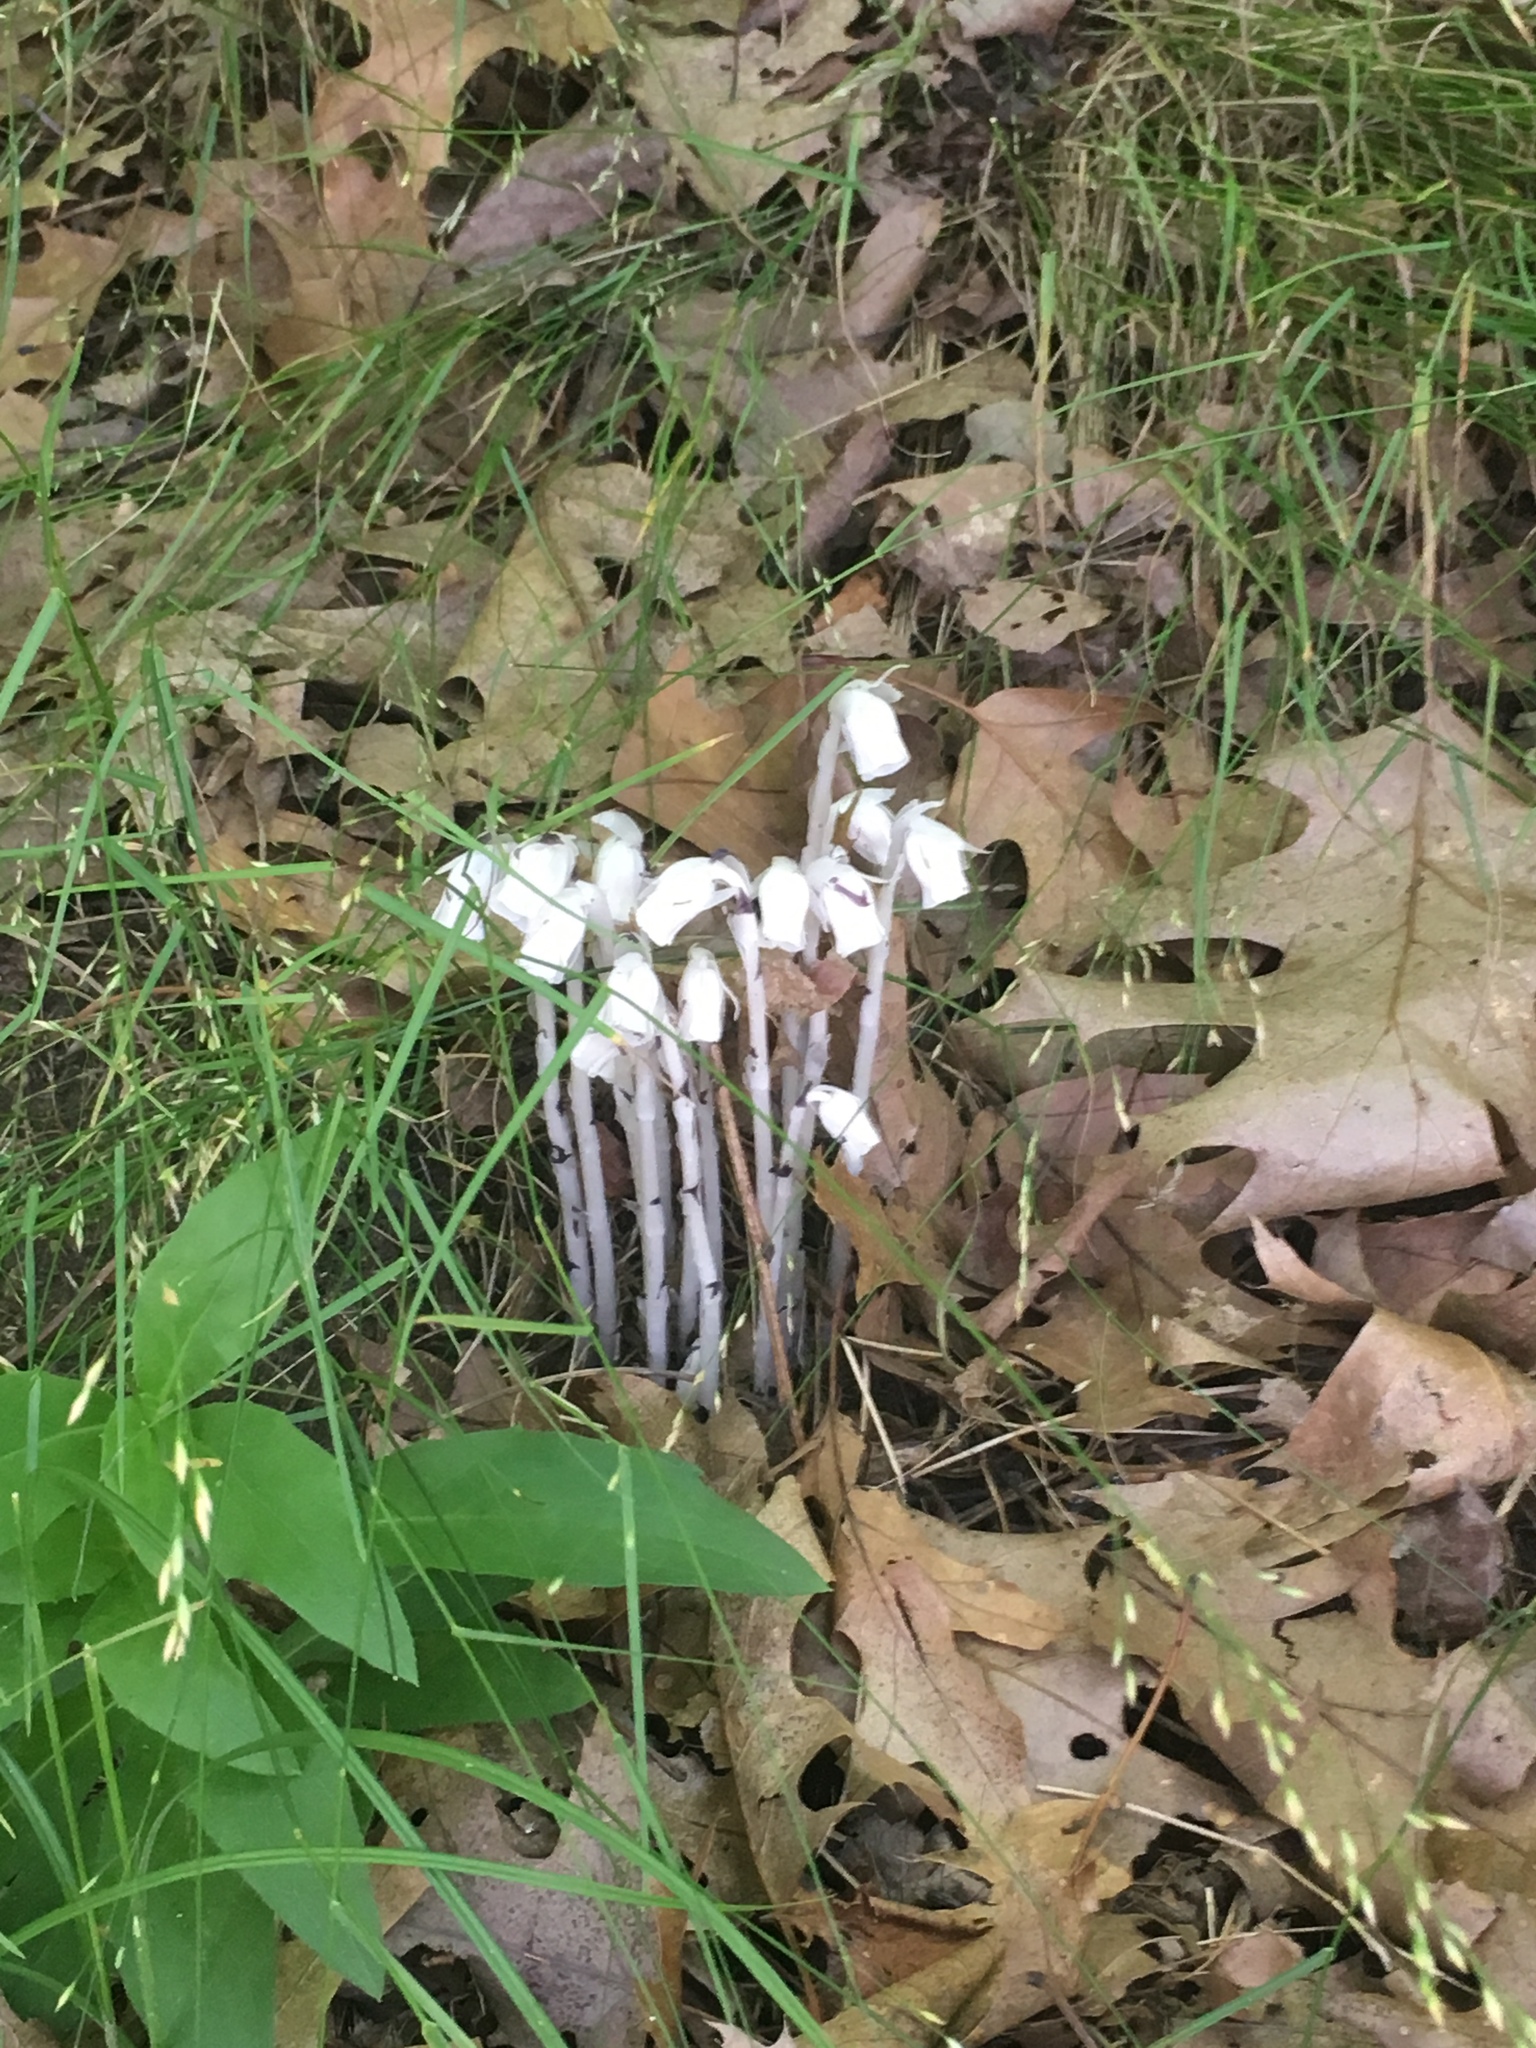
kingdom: Plantae
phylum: Tracheophyta
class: Magnoliopsida
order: Ericales
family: Ericaceae
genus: Monotropa
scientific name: Monotropa uniflora
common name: Convulsion root
